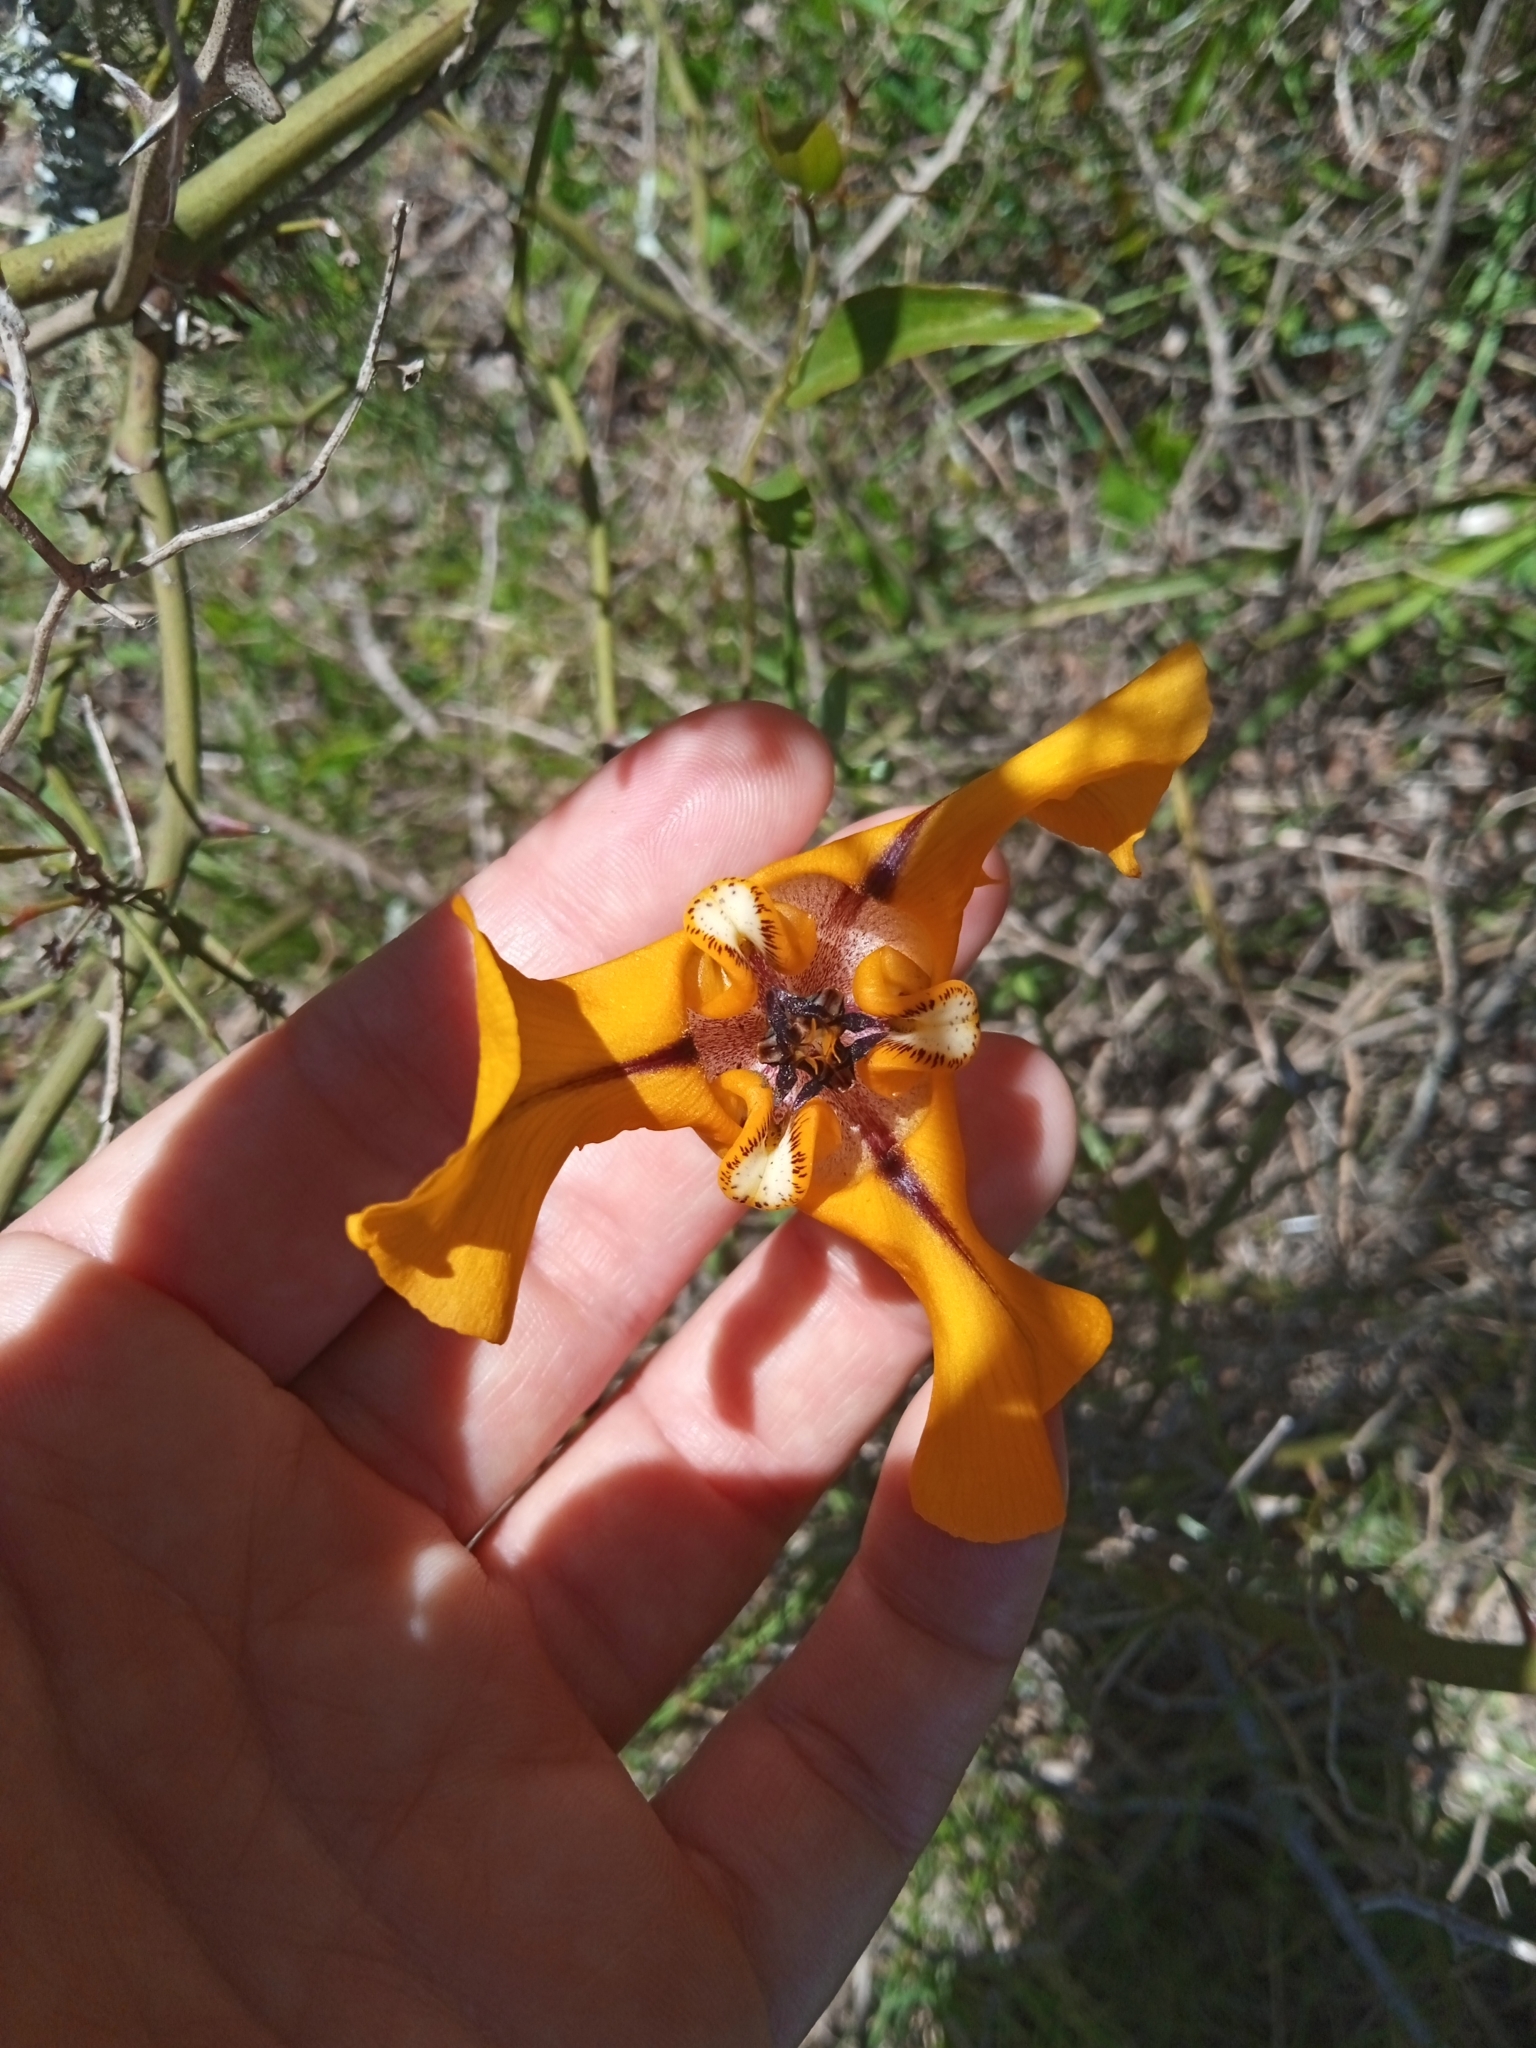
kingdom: Plantae
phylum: Tracheophyta
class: Liliopsida
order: Asparagales
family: Iridaceae
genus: Cypella
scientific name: Cypella herbertii
